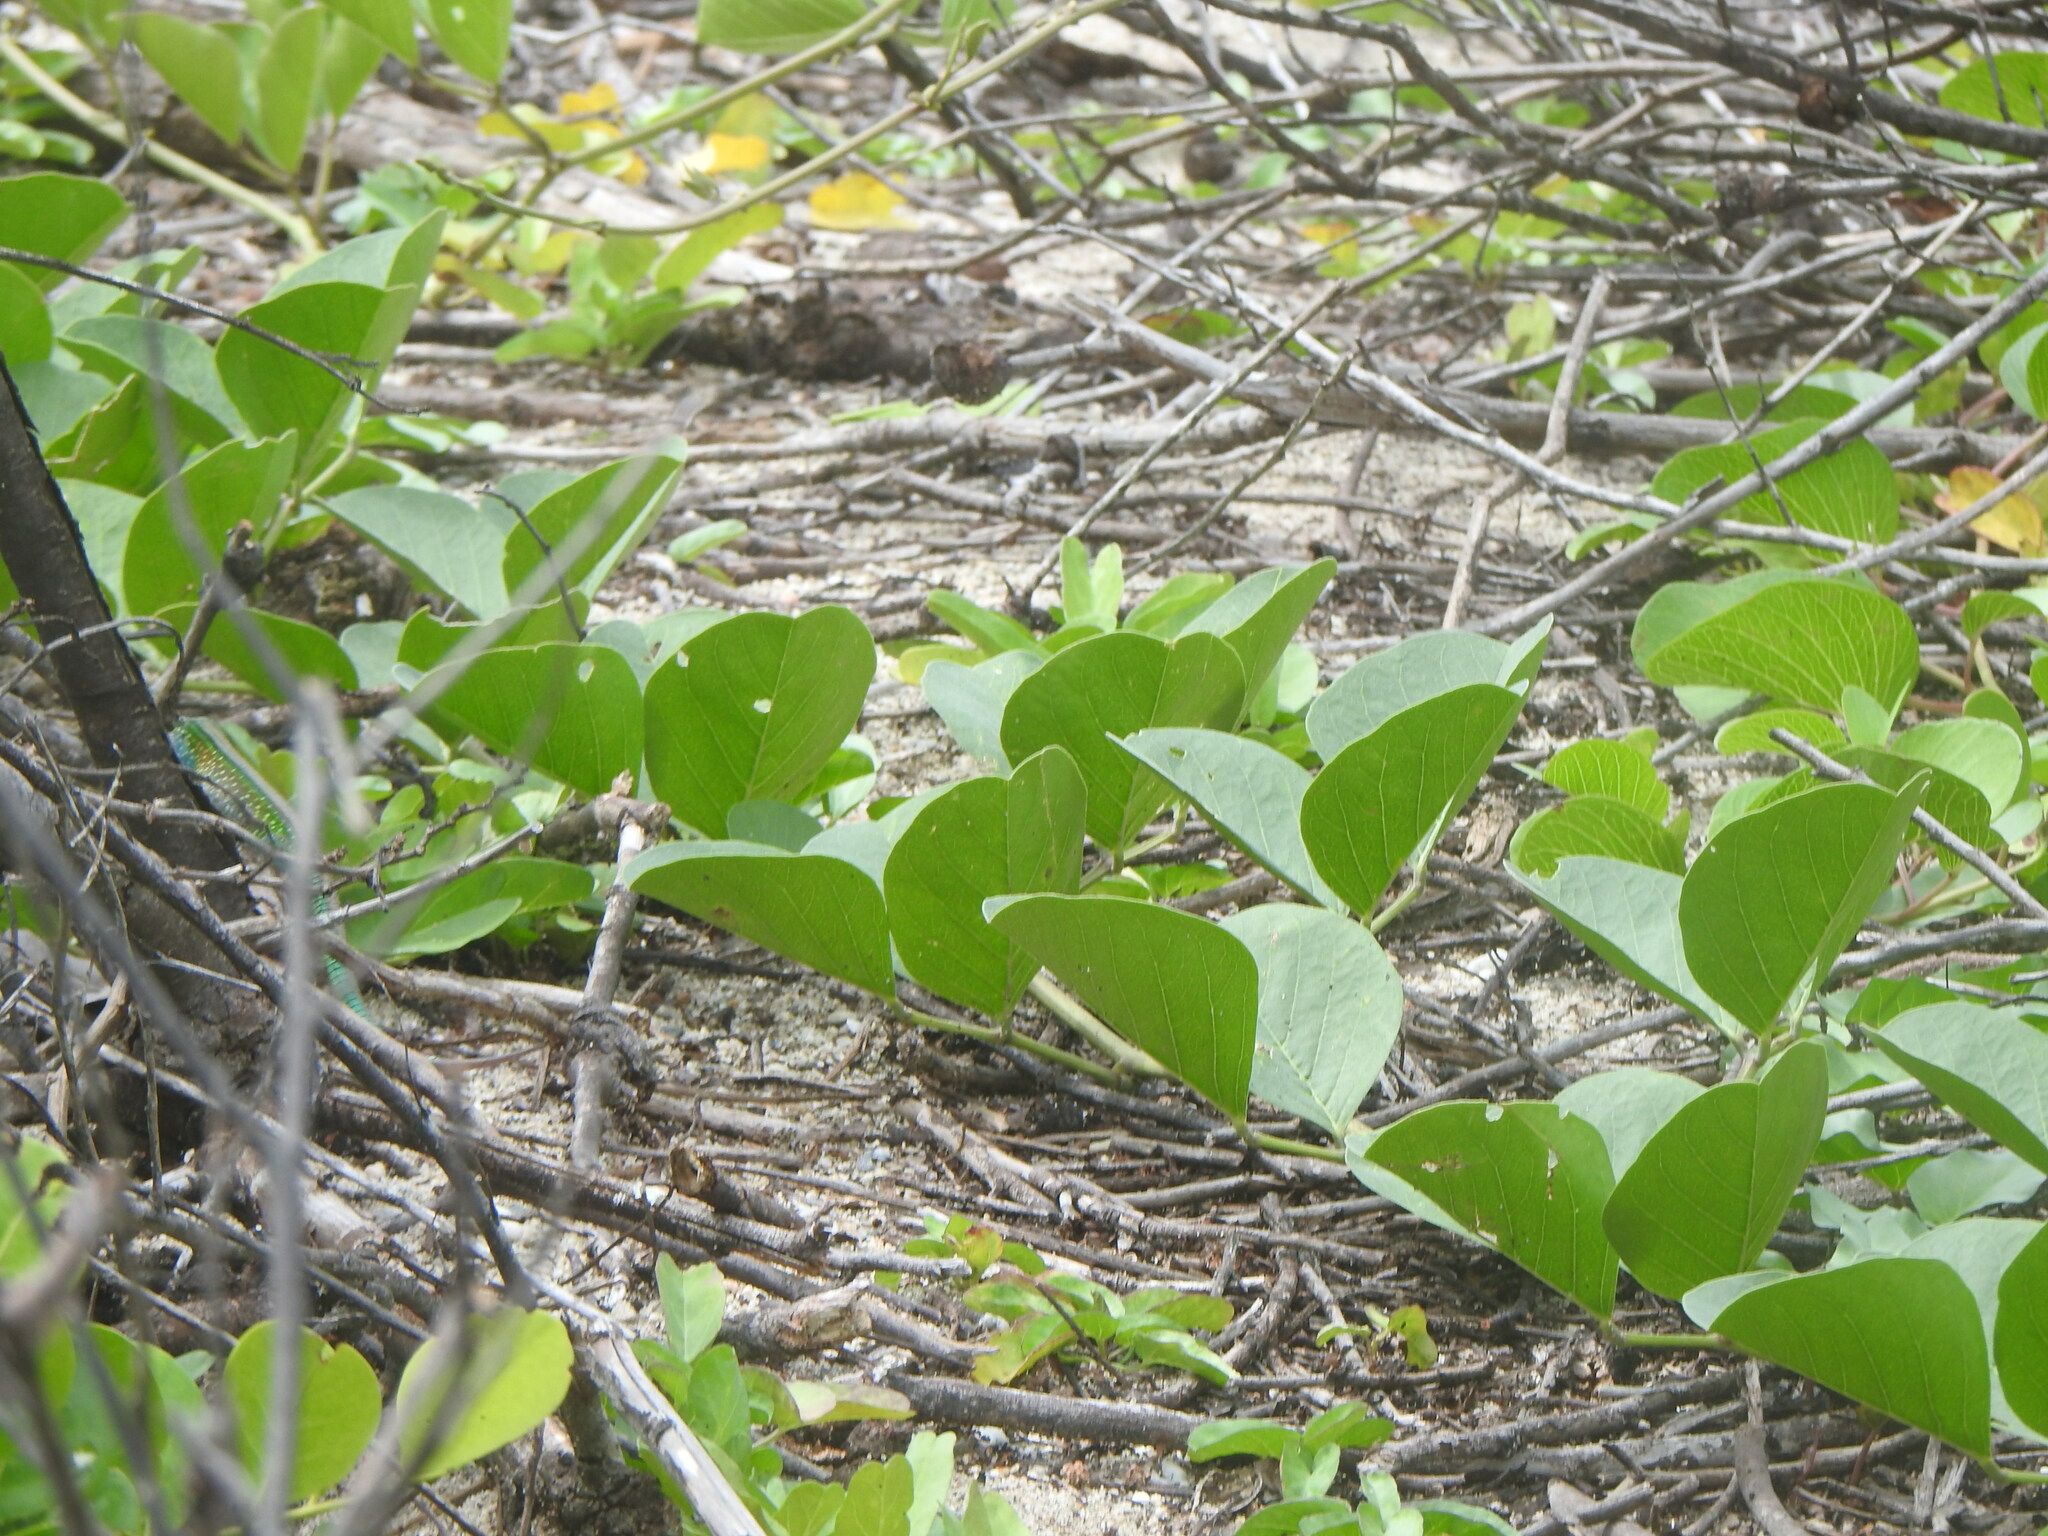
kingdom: Plantae
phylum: Tracheophyta
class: Magnoliopsida
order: Solanales
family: Convolvulaceae
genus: Ipomoea
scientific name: Ipomoea pes-caprae
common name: Beach morning glory
